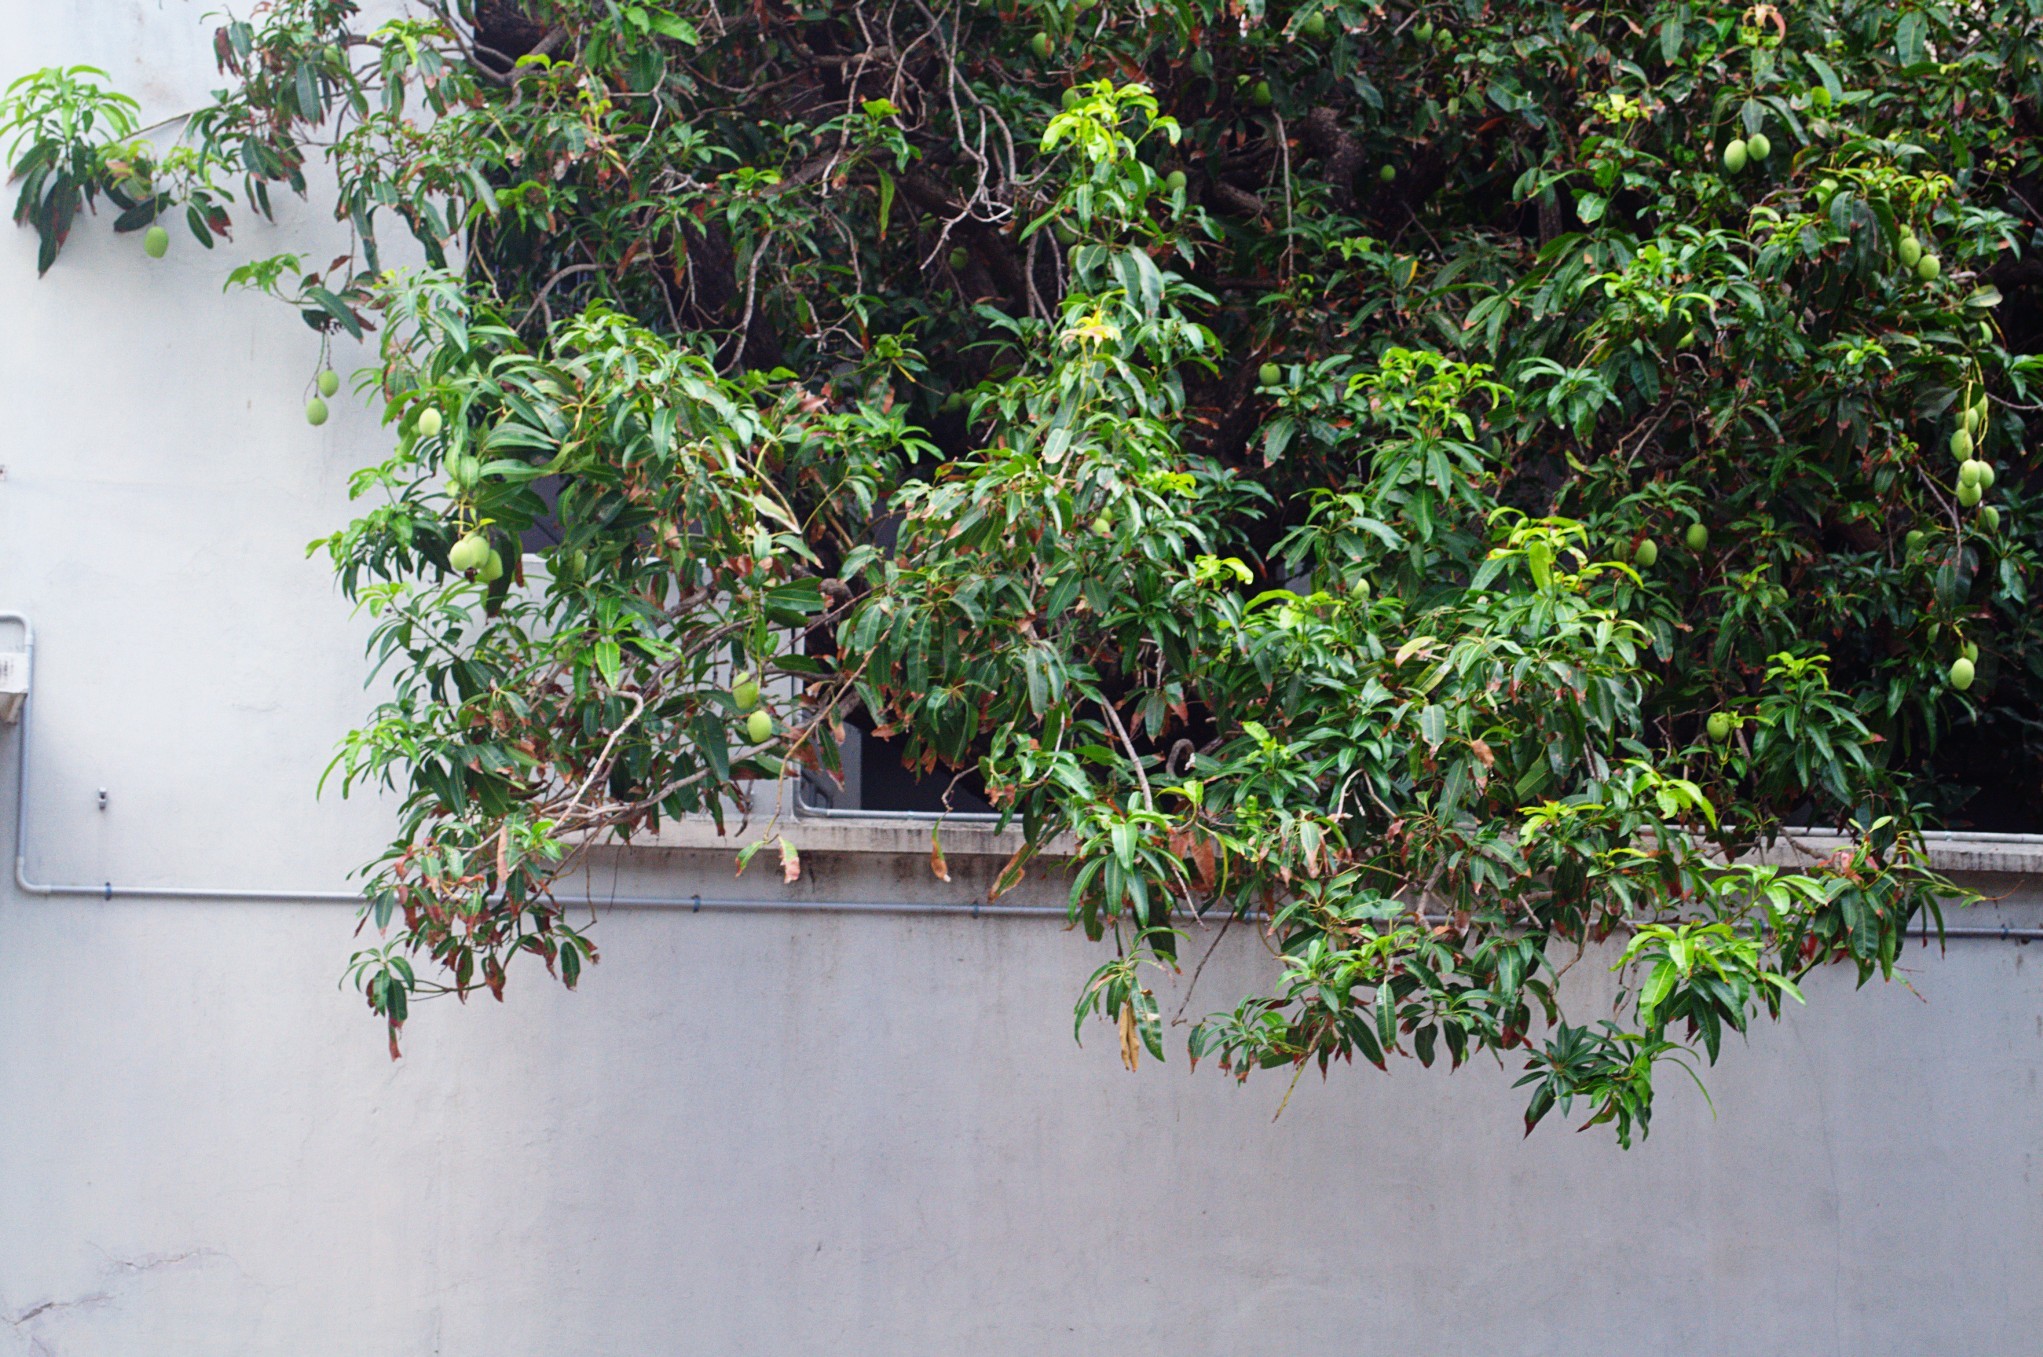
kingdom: Plantae
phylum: Tracheophyta
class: Magnoliopsida
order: Sapindales
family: Anacardiaceae
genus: Mangifera
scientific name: Mangifera indica
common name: Mango
